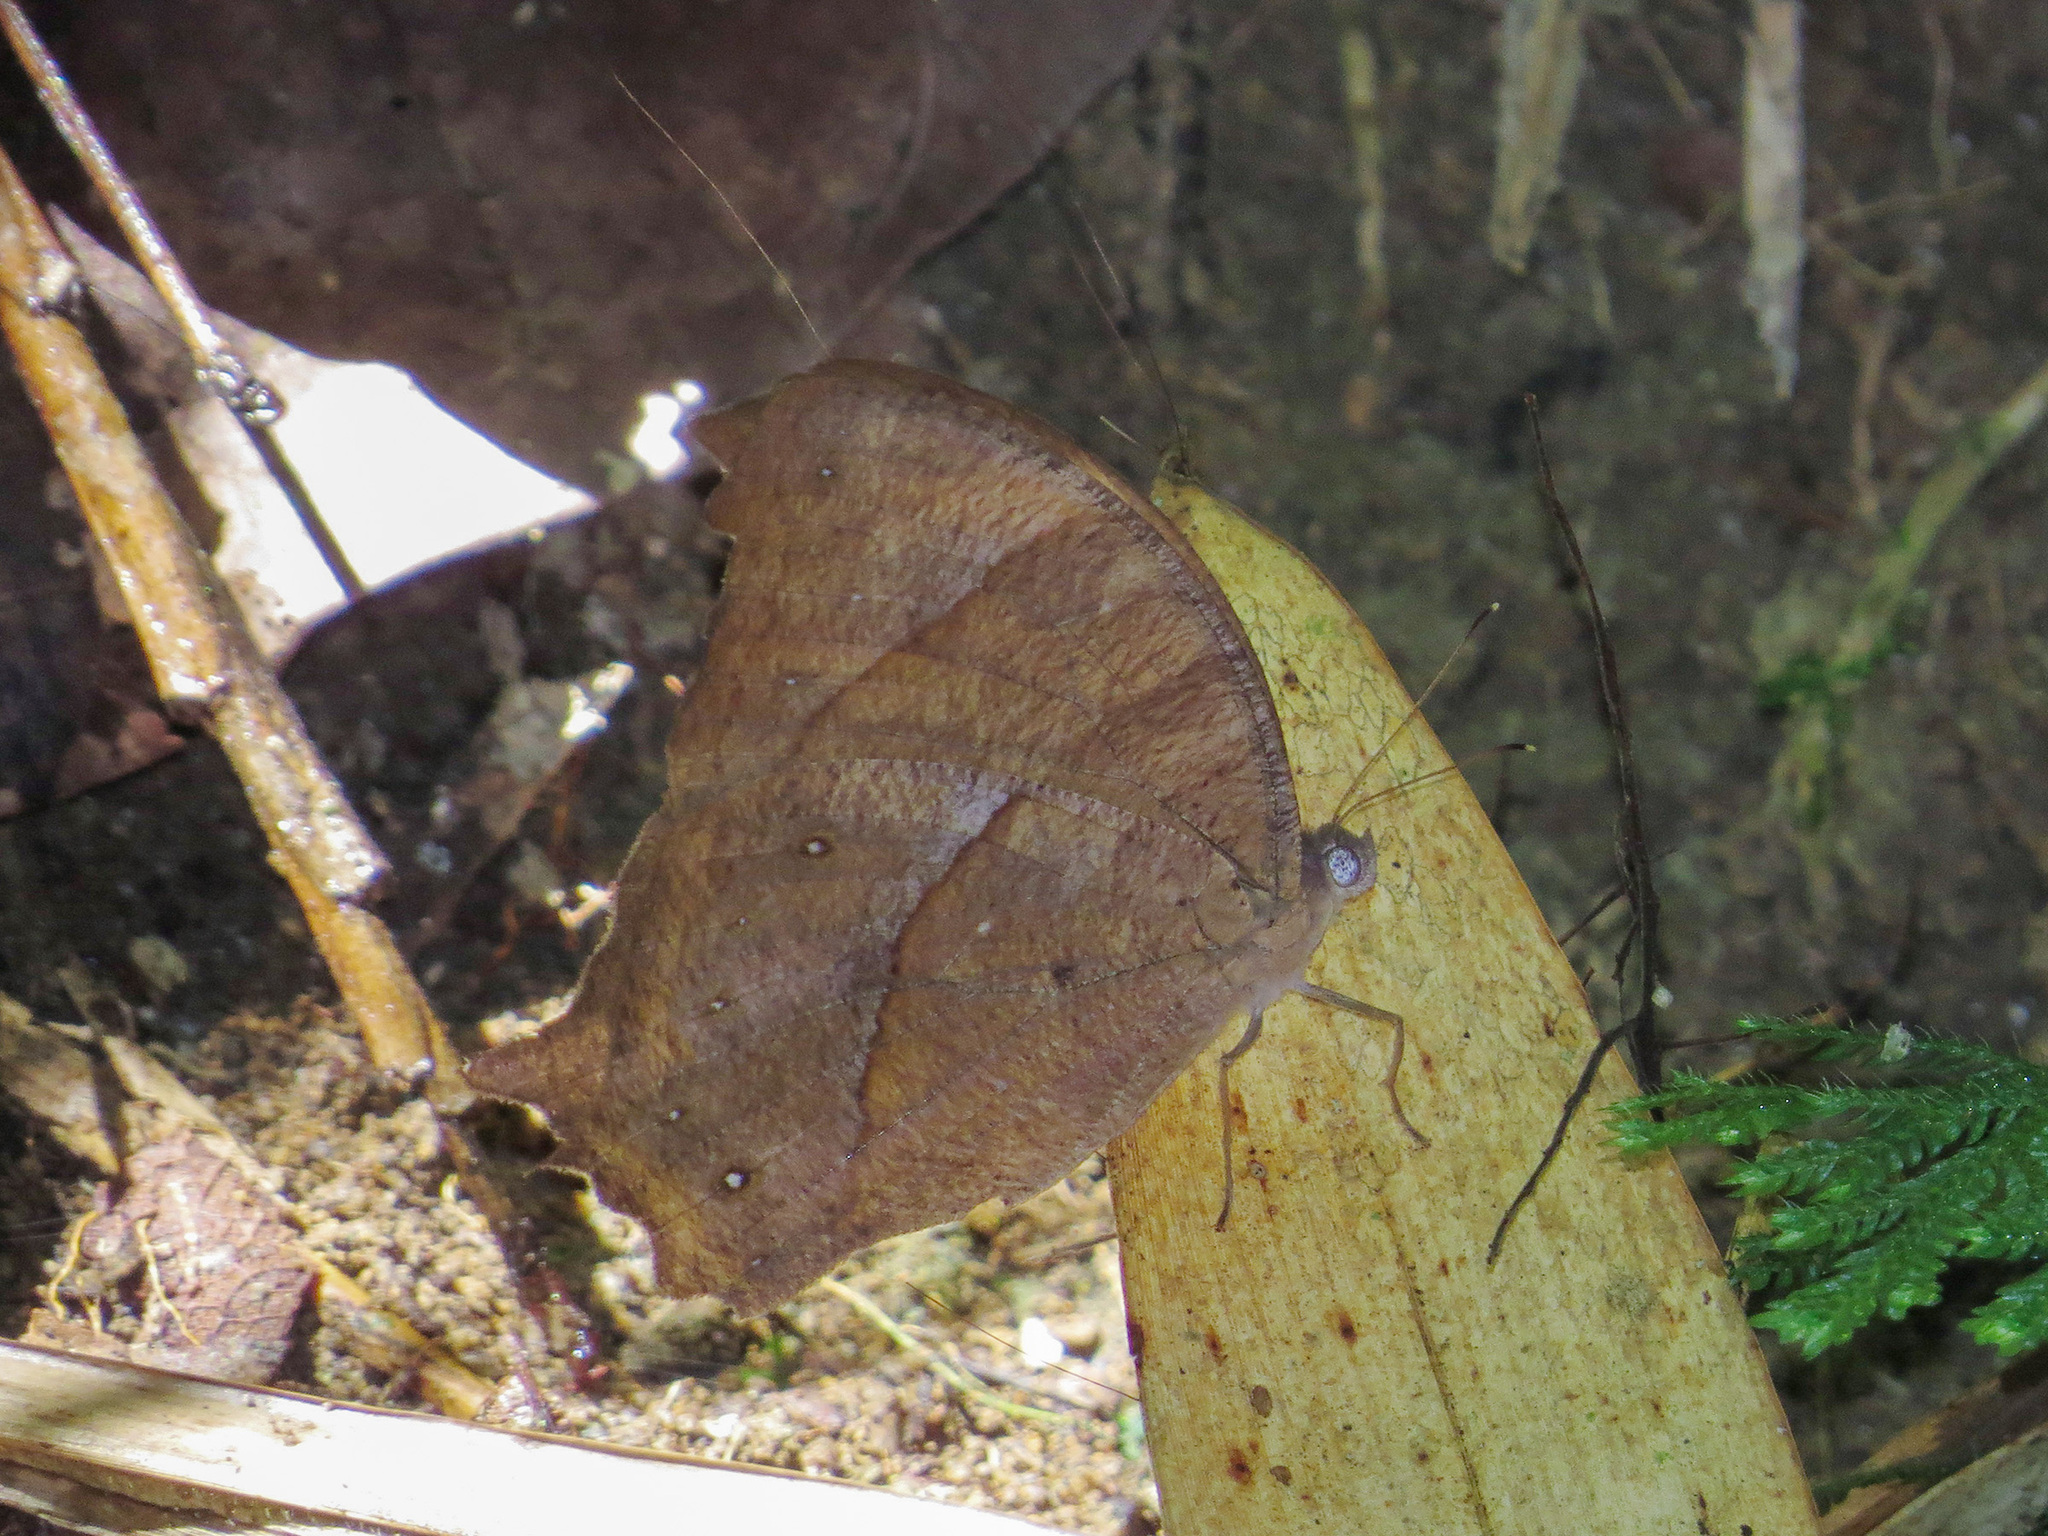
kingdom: Animalia
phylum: Arthropoda
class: Insecta
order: Lepidoptera
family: Nymphalidae
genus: Melanitis
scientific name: Melanitis phedima
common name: Dark evening brown
